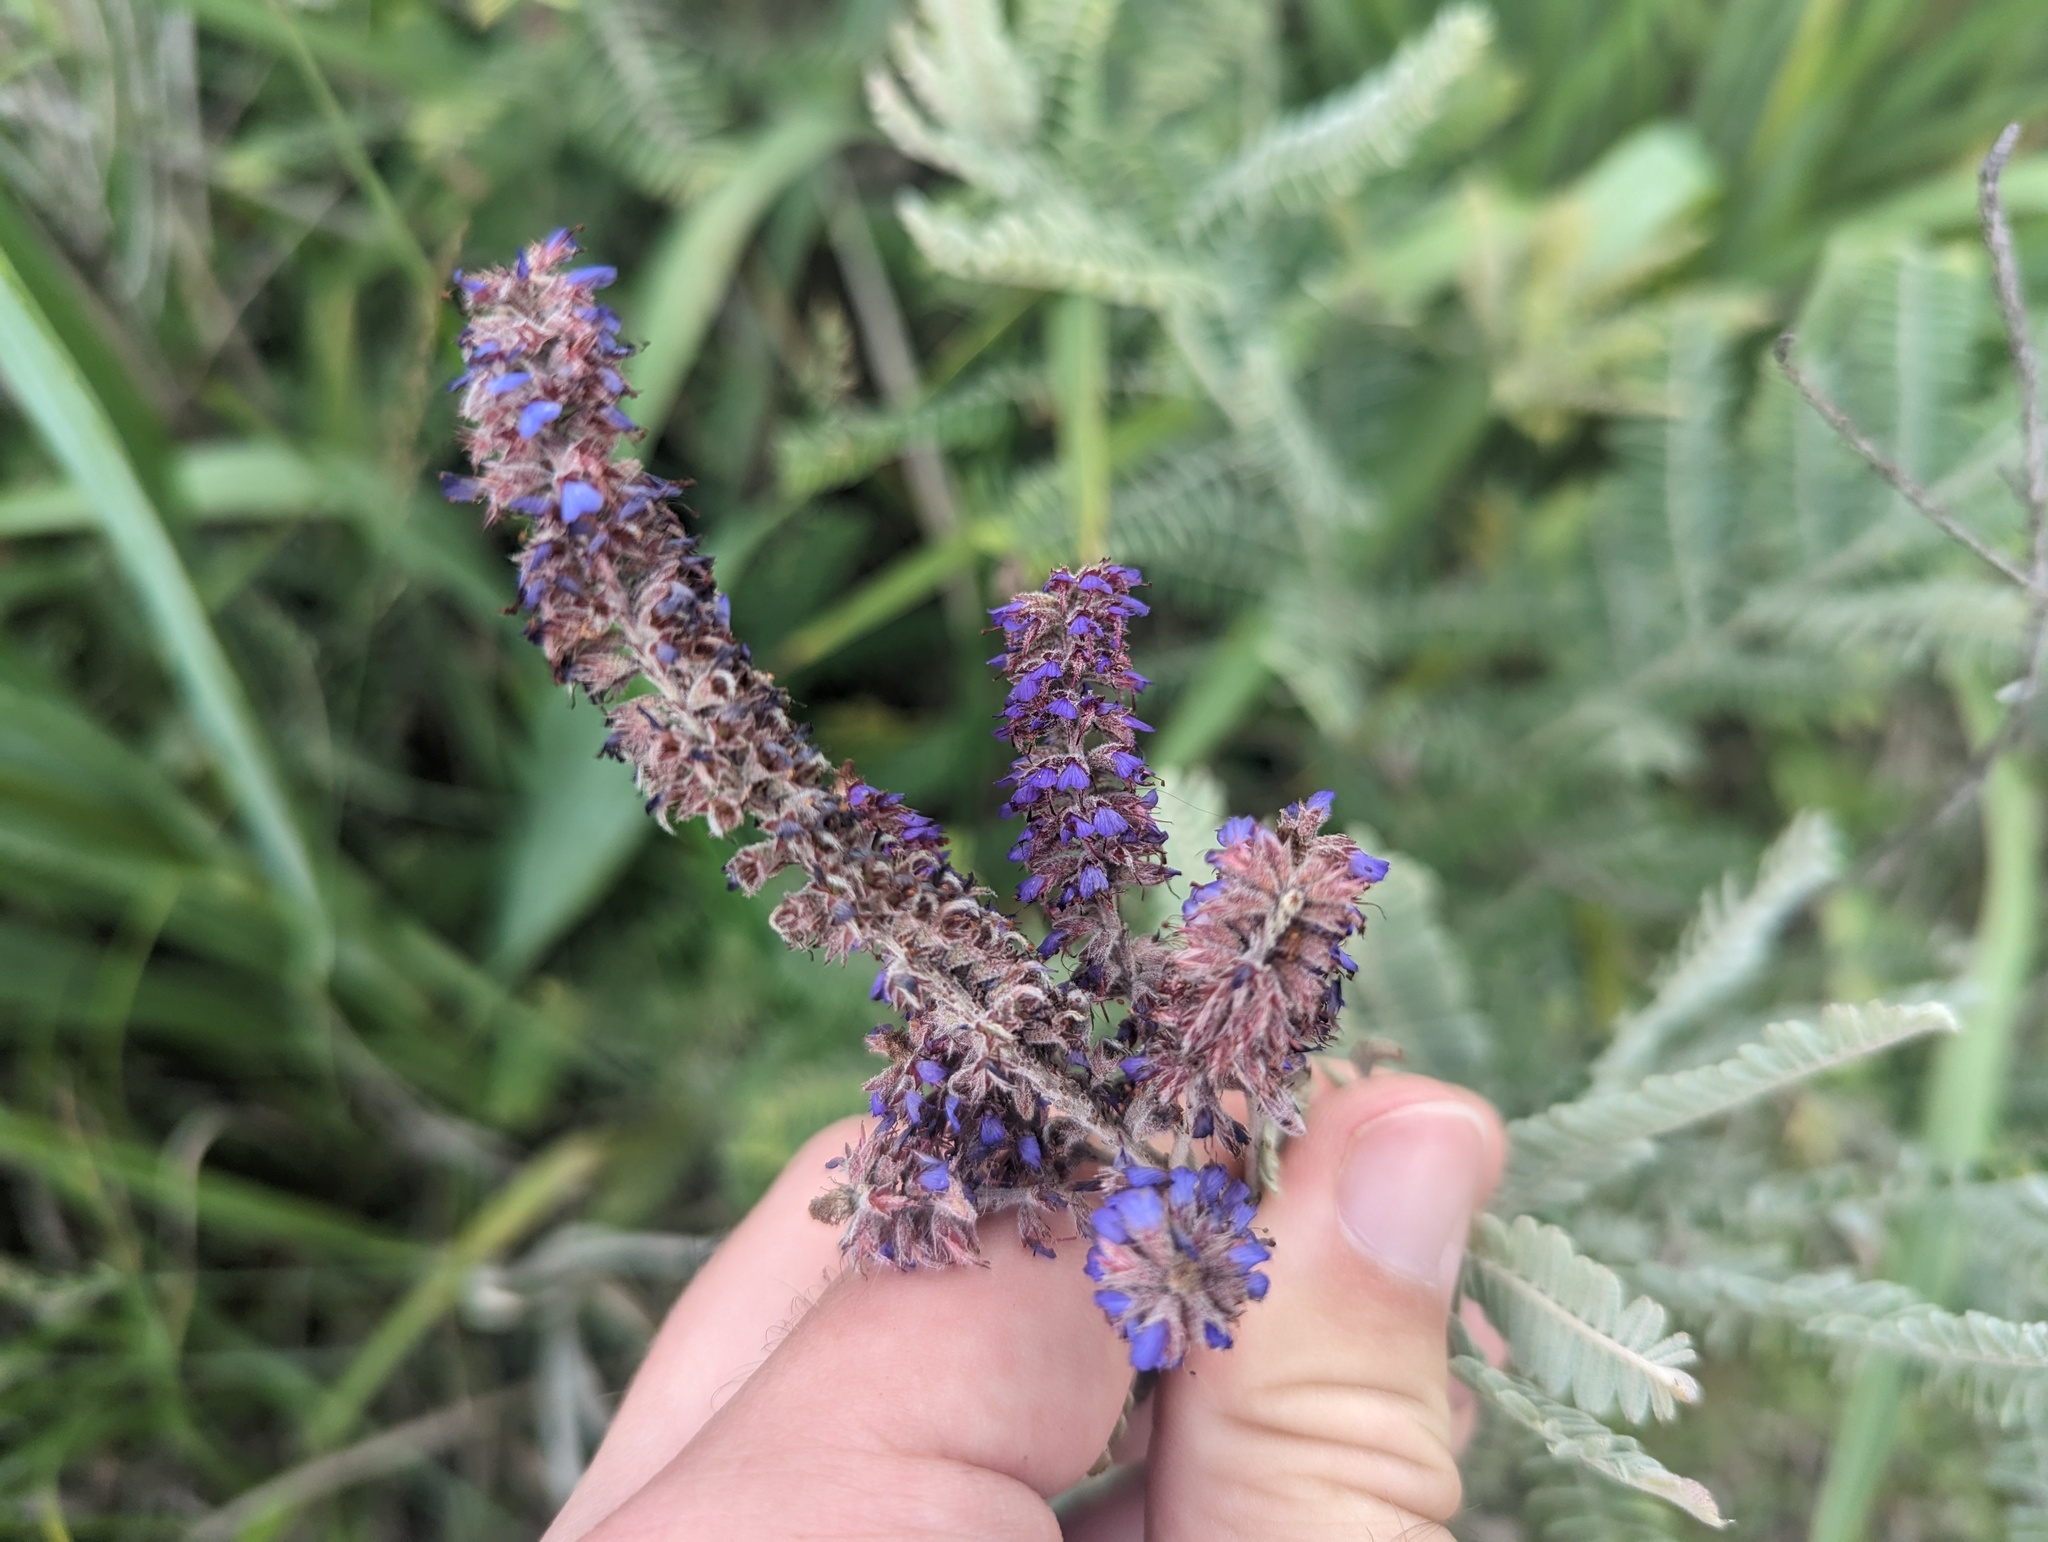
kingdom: Plantae
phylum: Tracheophyta
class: Magnoliopsida
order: Fabales
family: Fabaceae
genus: Amorpha
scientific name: Amorpha canescens
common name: Leadplant
